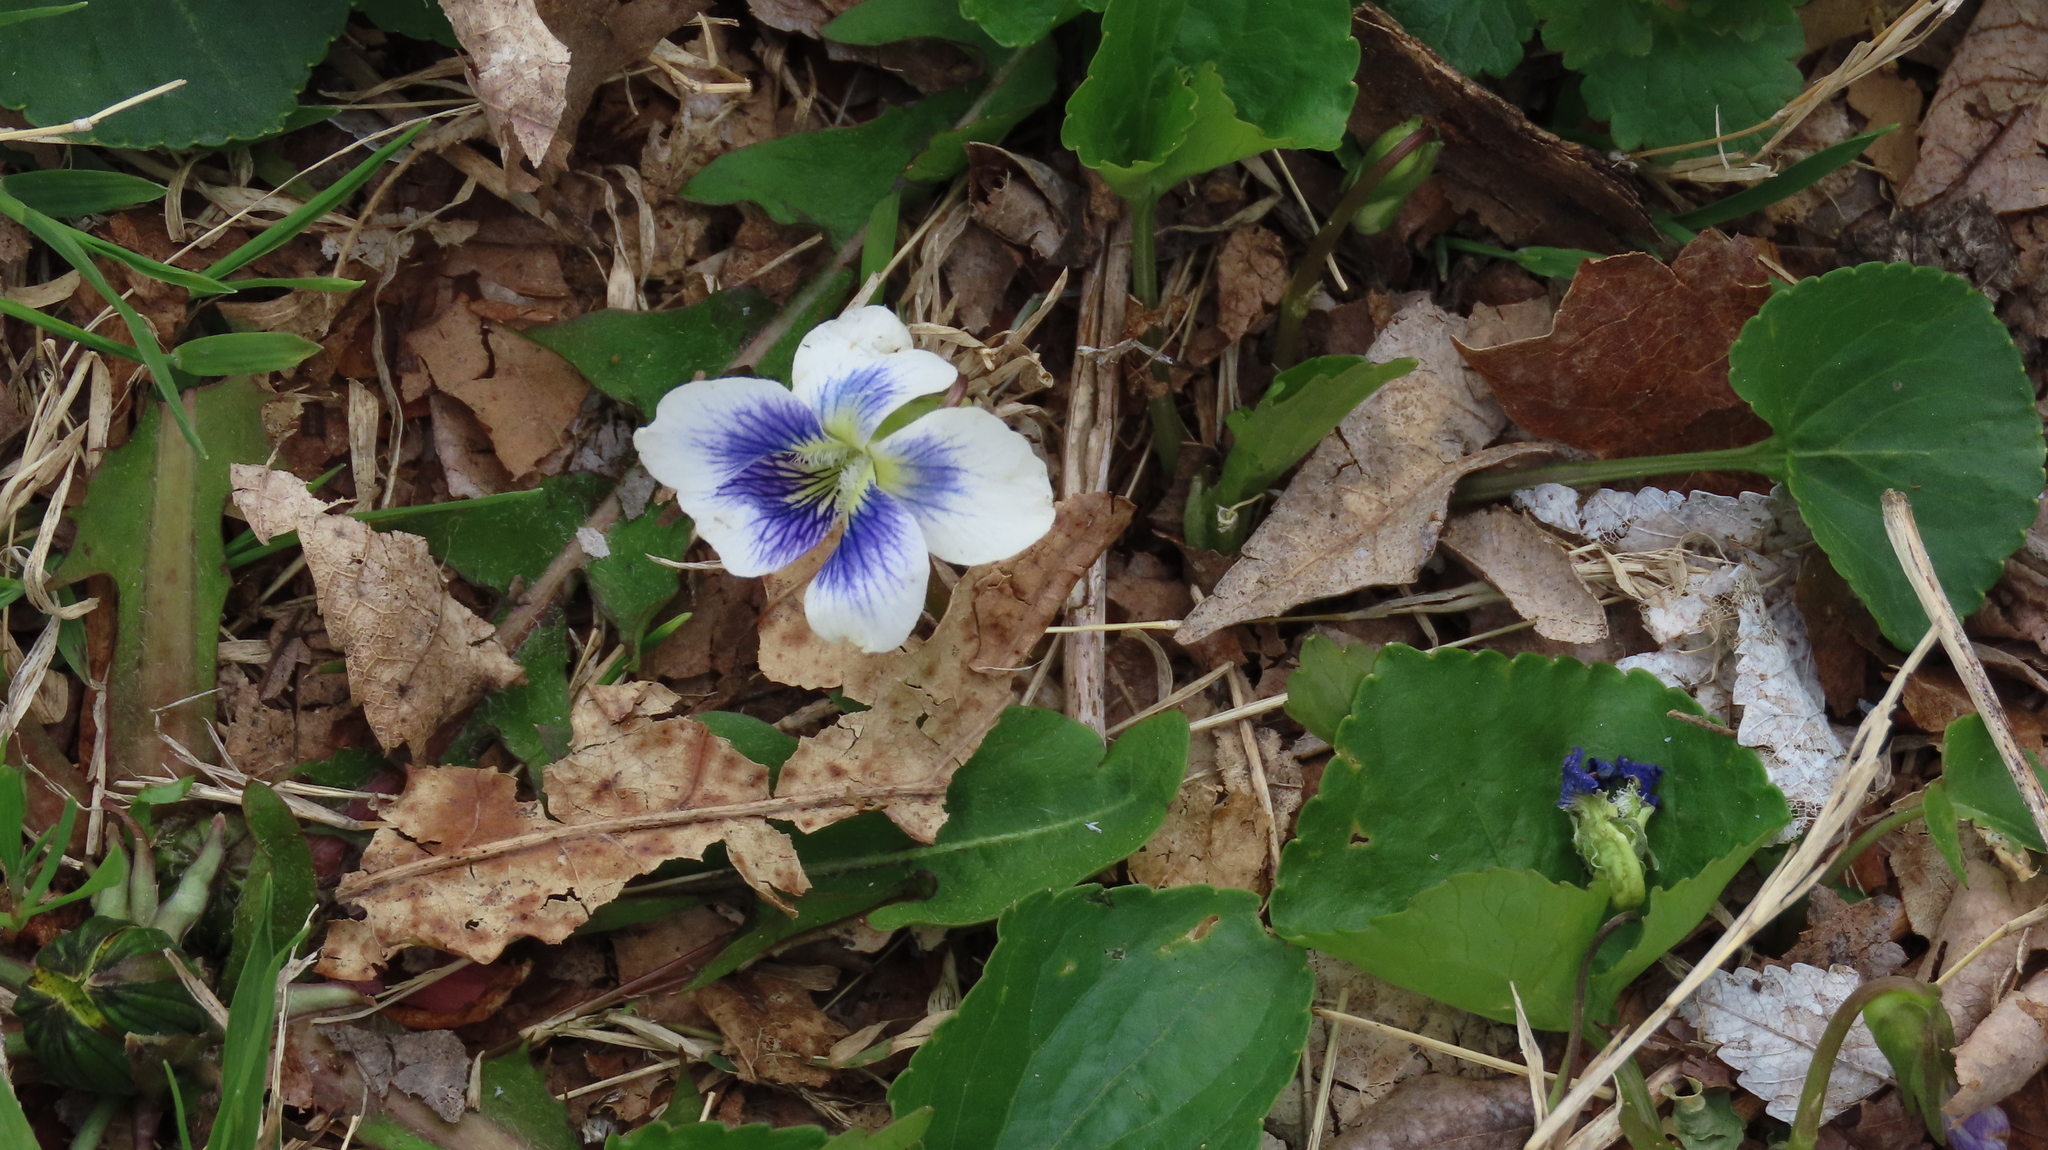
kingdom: Plantae
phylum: Tracheophyta
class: Magnoliopsida
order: Malpighiales
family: Violaceae
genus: Viola
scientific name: Viola sororia
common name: Dooryard violet
